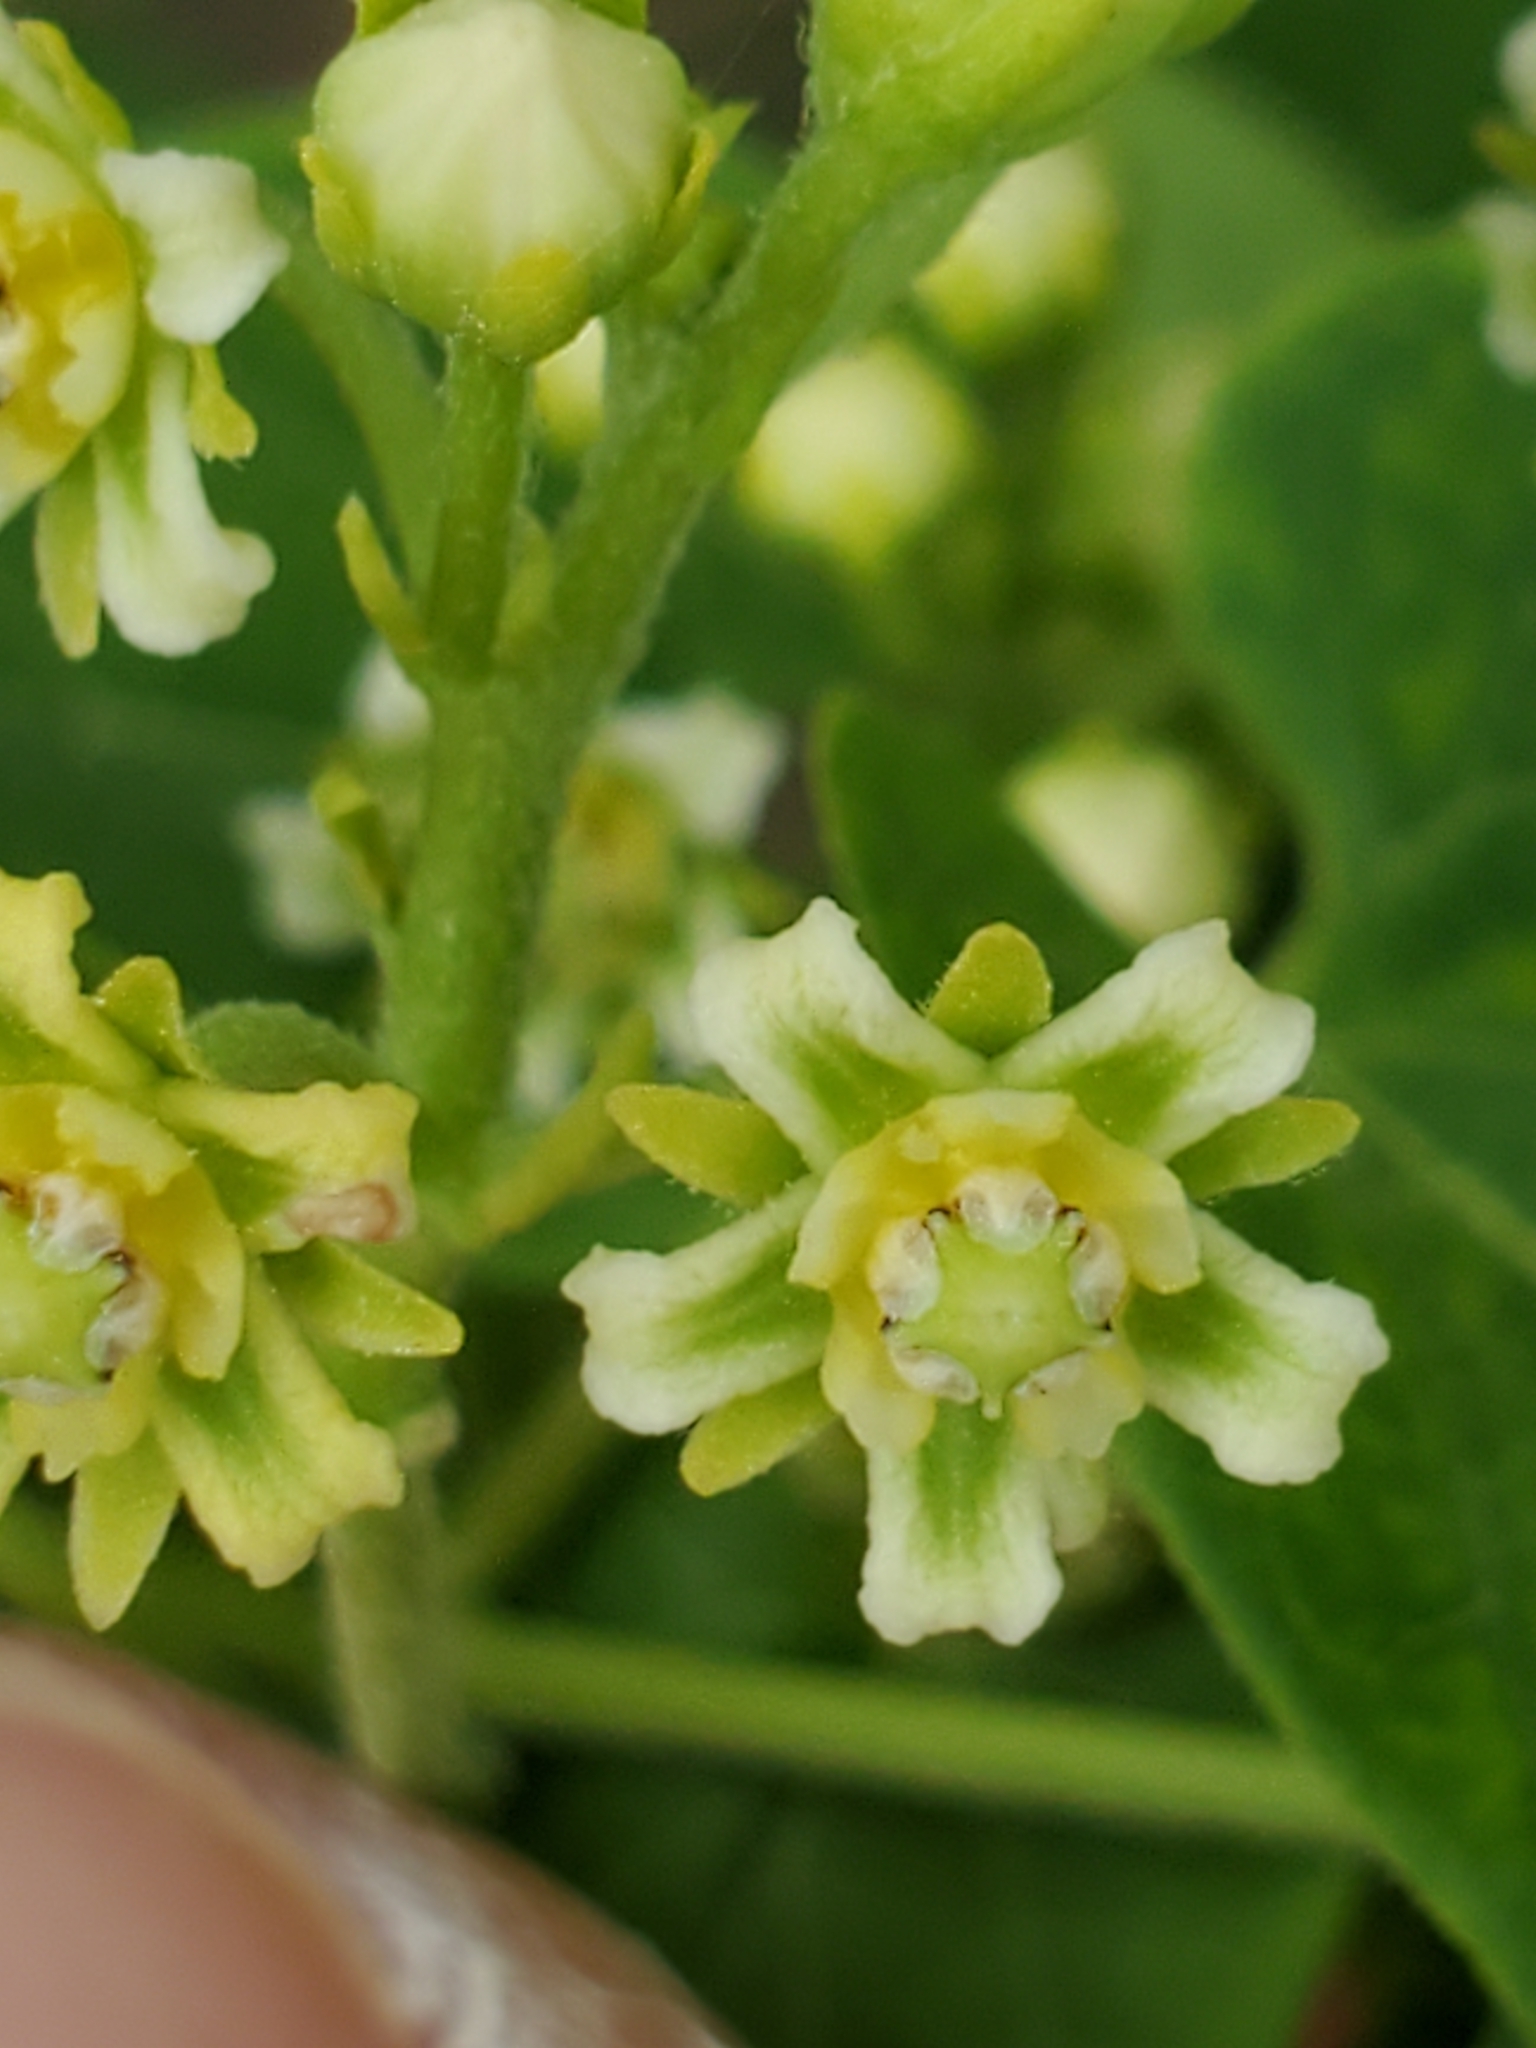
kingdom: Plantae
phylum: Tracheophyta
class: Magnoliopsida
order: Gentianales
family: Apocynaceae
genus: Cynanchum
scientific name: Cynanchum racemosum
